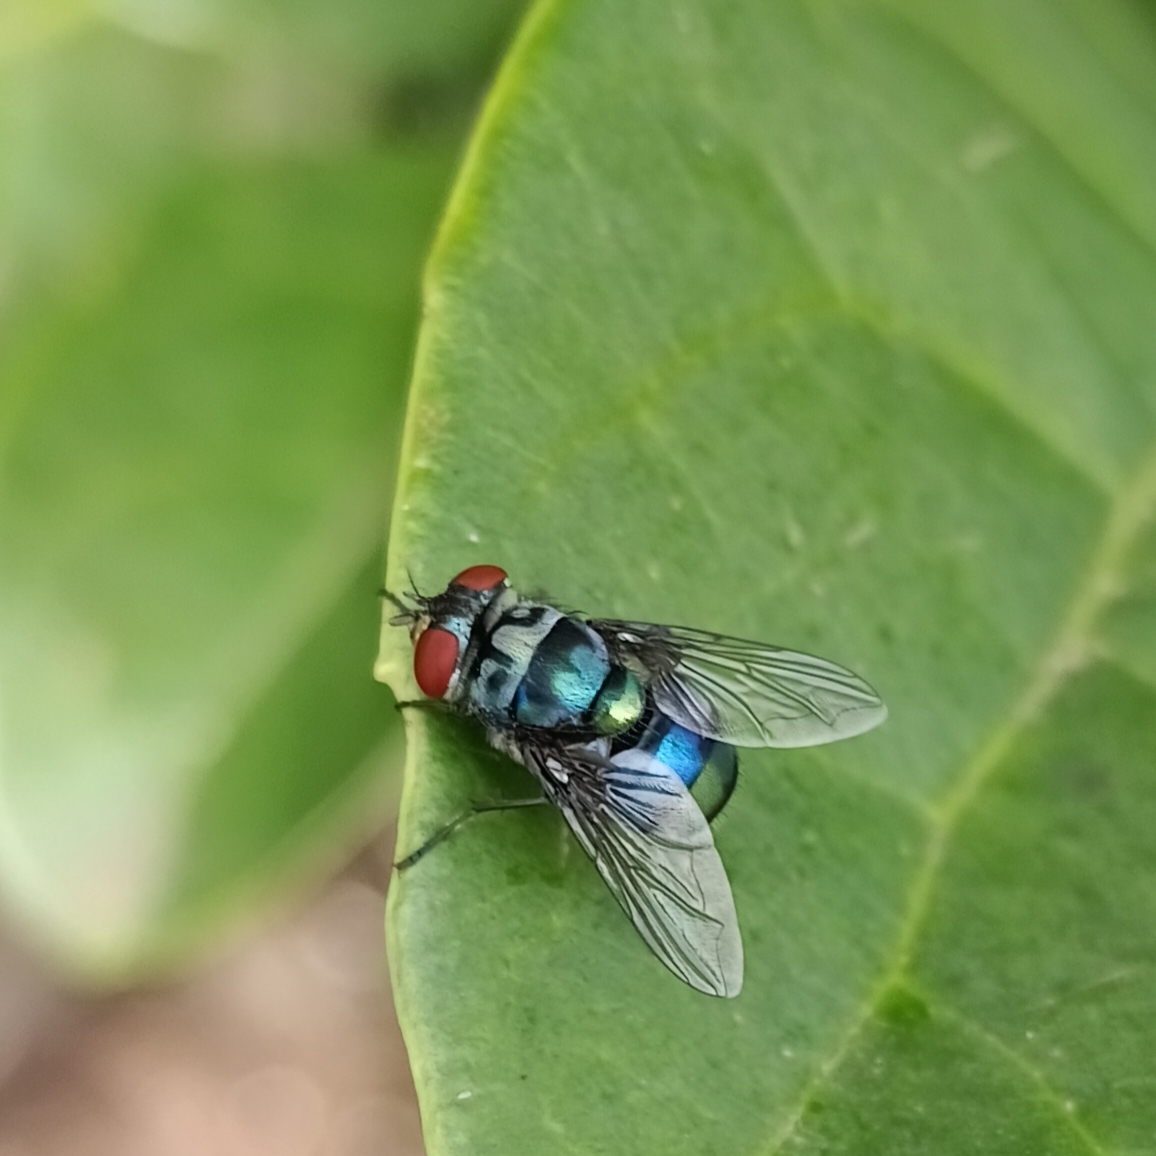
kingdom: Animalia
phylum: Arthropoda
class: Insecta
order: Diptera
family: Calliphoridae
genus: Chrysomya
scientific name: Chrysomya chloropyga
